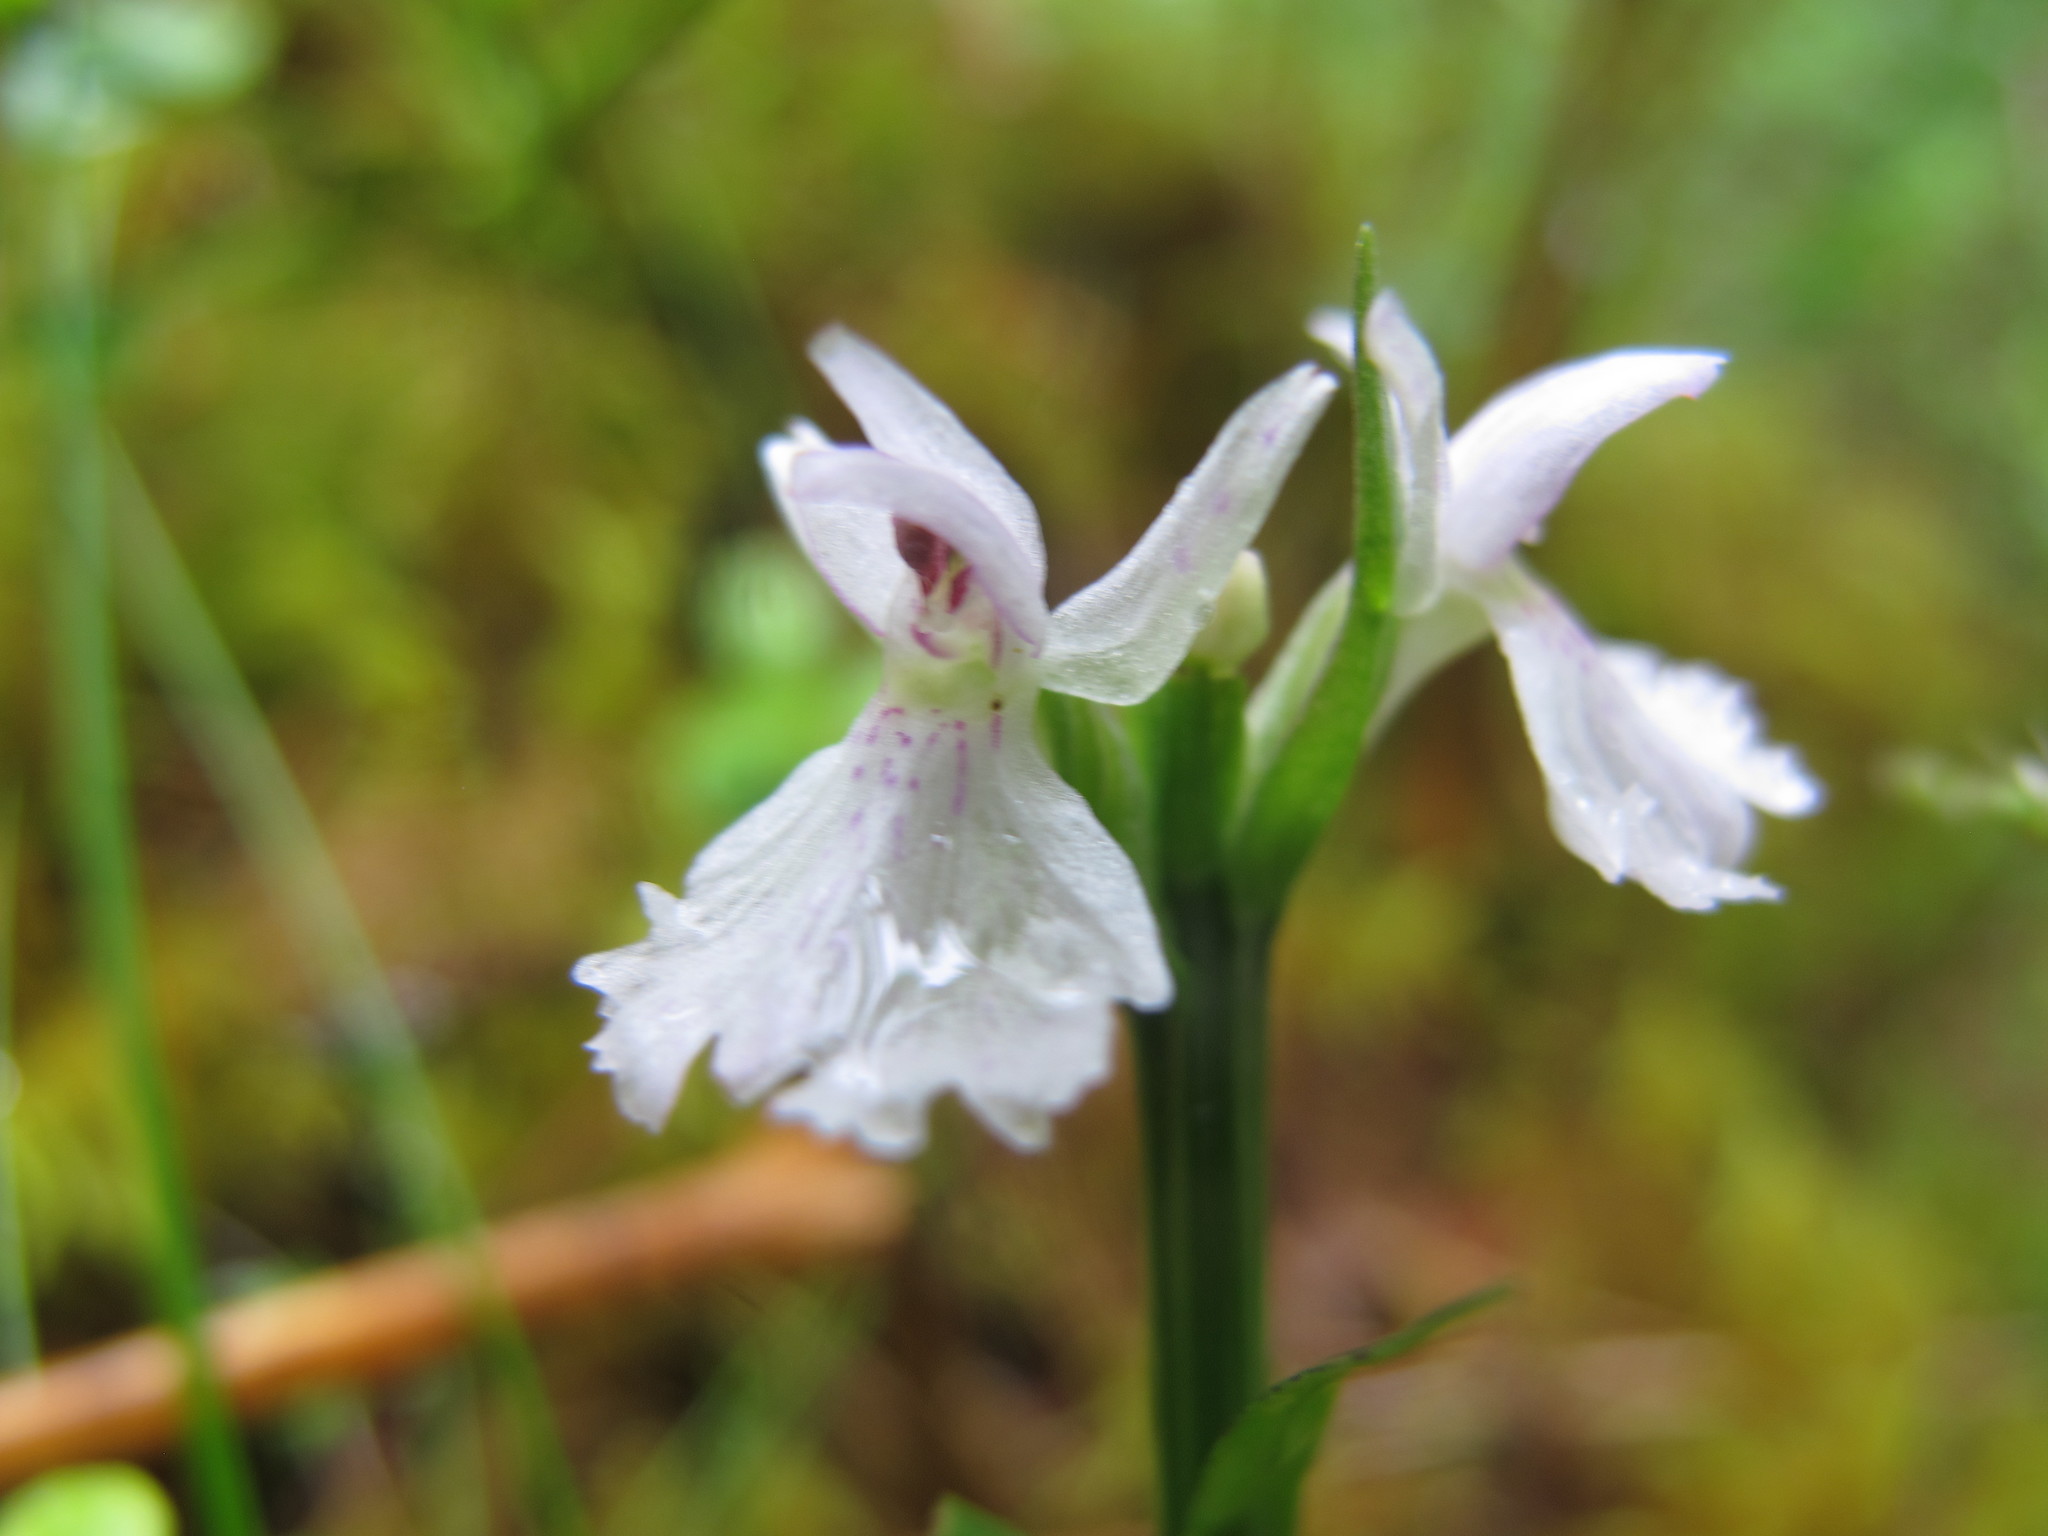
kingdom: Plantae
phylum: Tracheophyta
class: Liliopsida
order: Asparagales
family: Orchidaceae
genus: Dactylorhiza
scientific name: Dactylorhiza maculata
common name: Heath spotted-orchid
